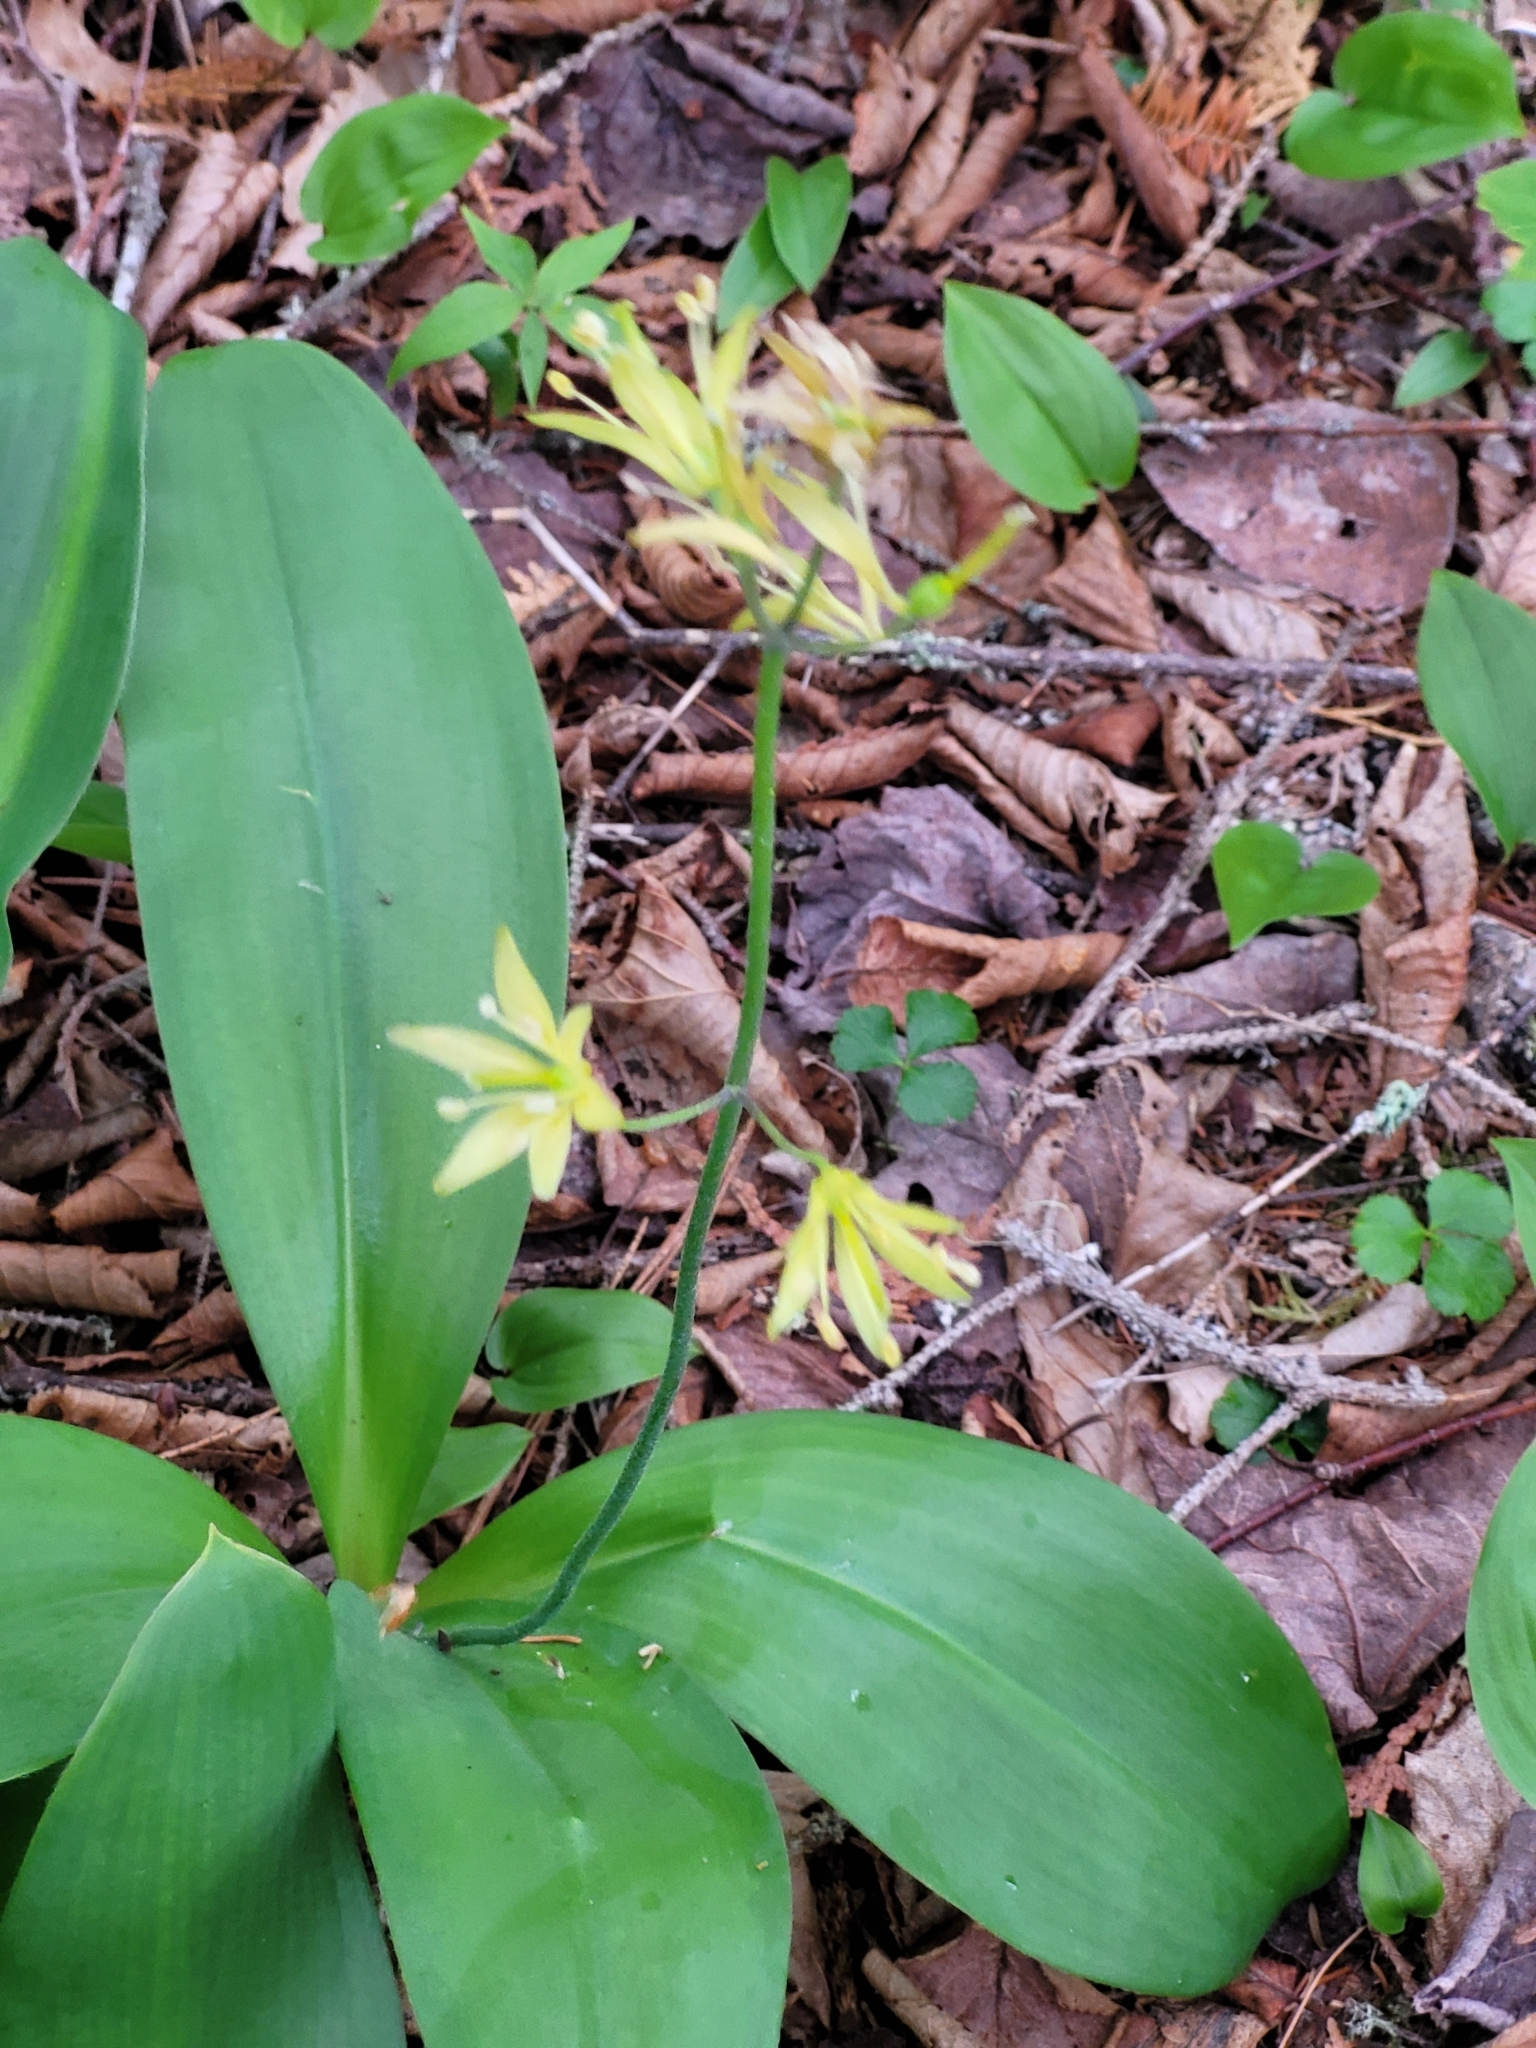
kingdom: Plantae
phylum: Tracheophyta
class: Liliopsida
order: Liliales
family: Liliaceae
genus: Clintonia
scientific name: Clintonia borealis
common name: Yellow clintonia
